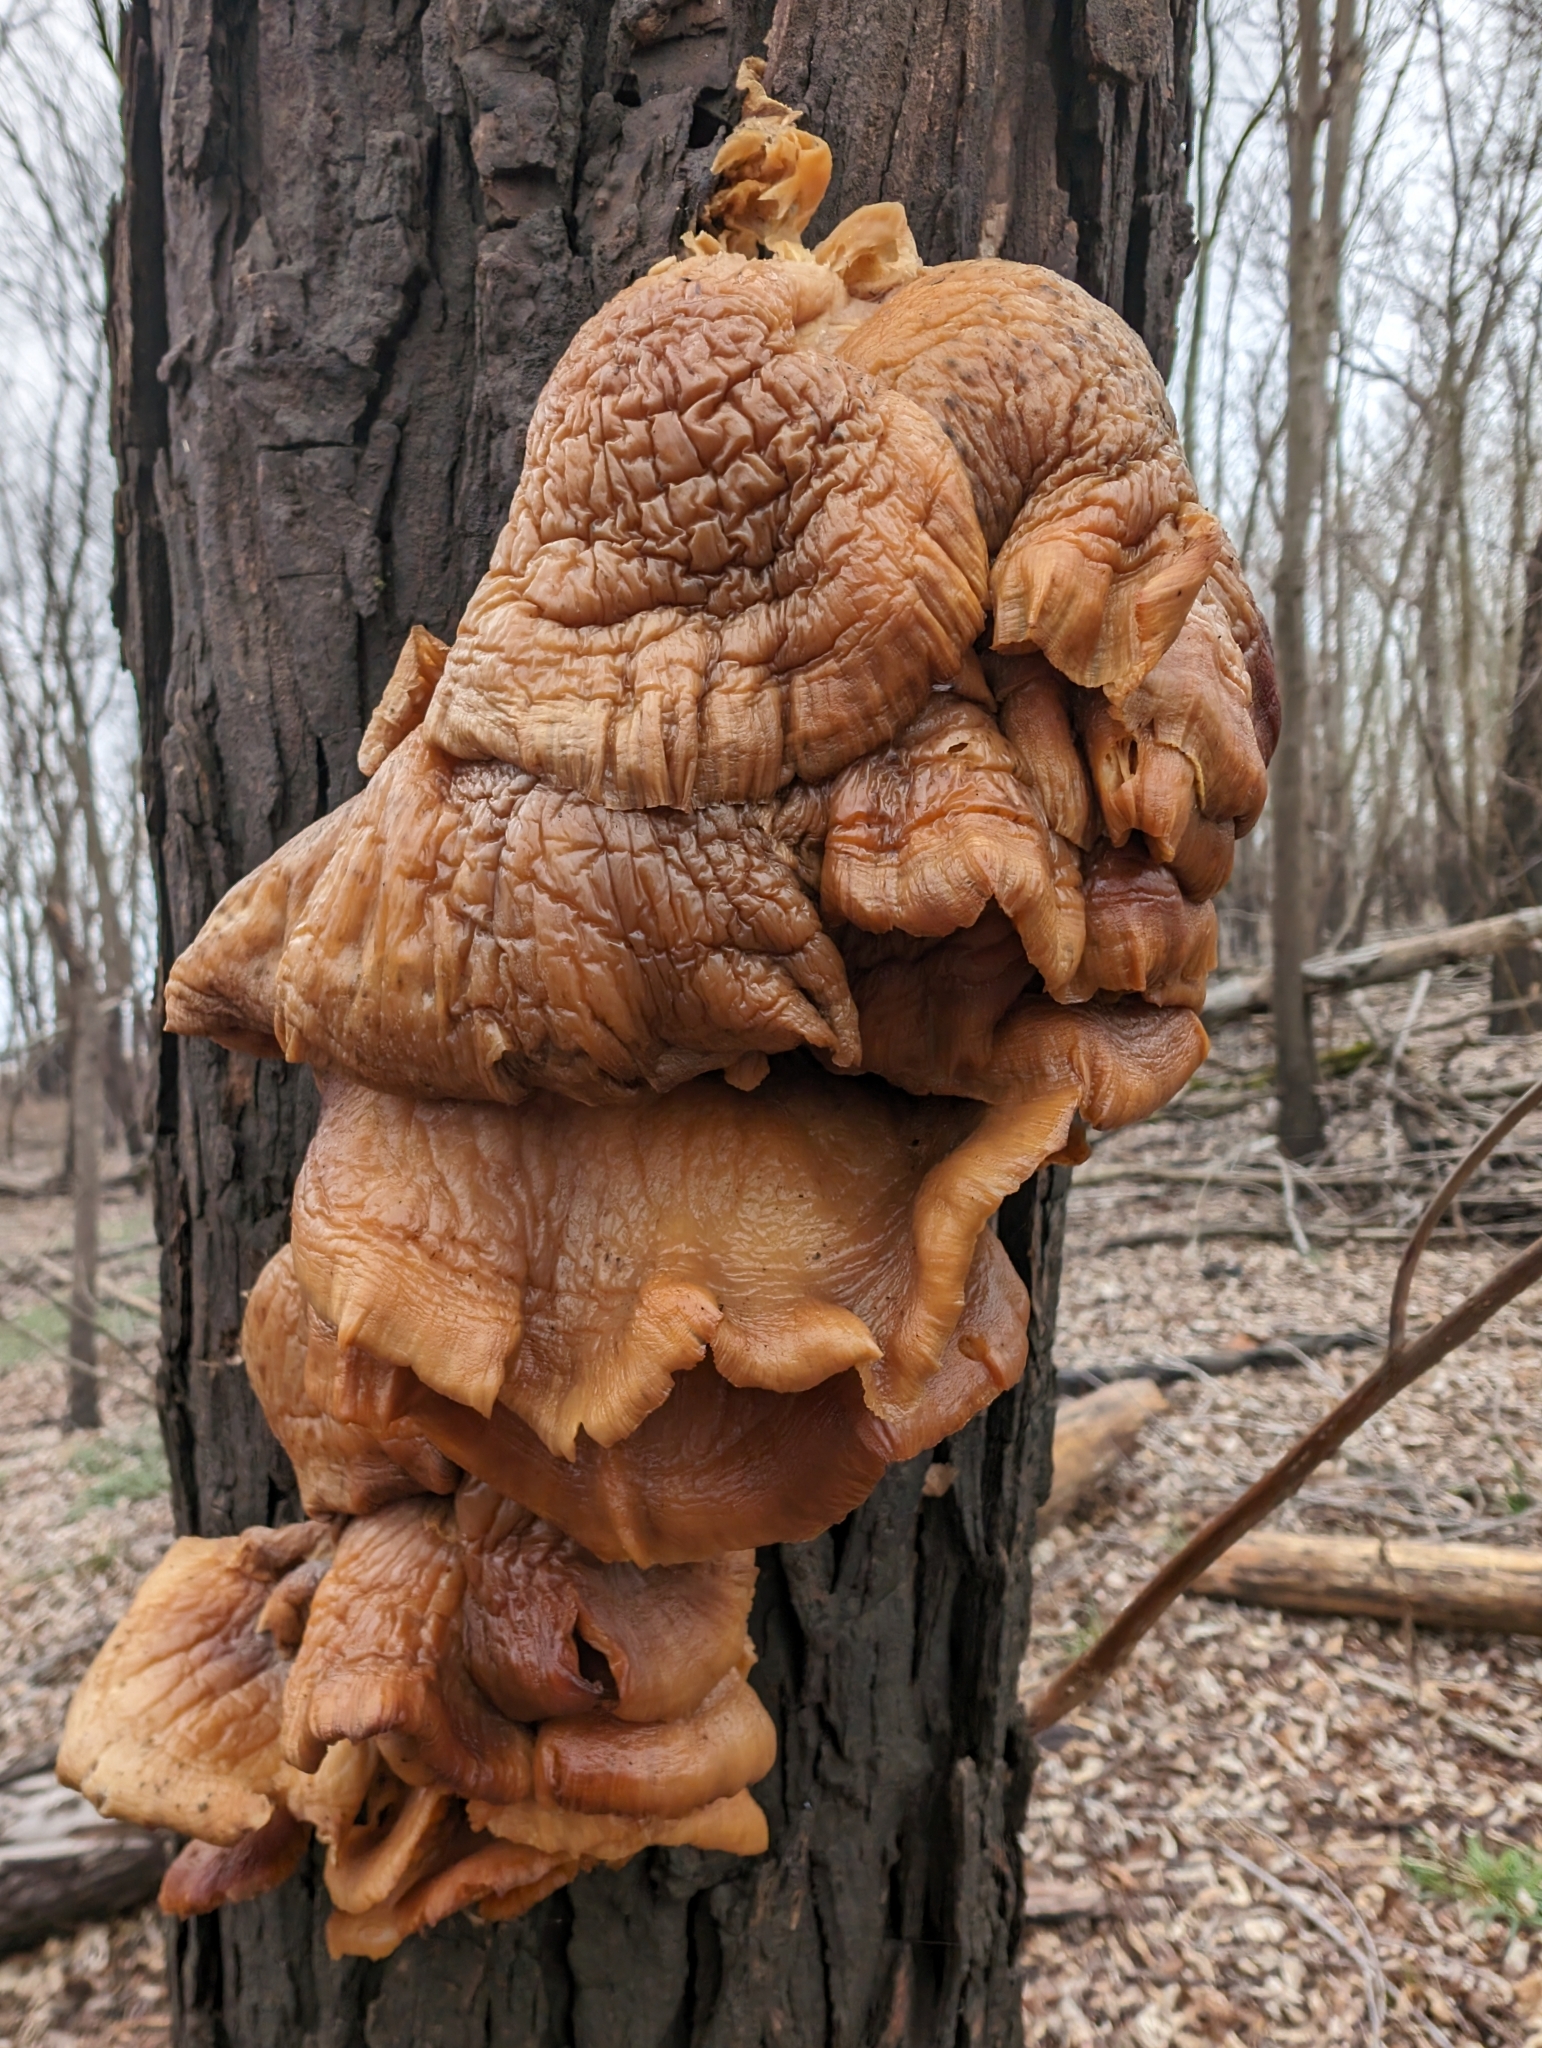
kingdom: Fungi
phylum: Basidiomycota
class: Agaricomycetes
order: Agaricales
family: Pleurotaceae
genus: Pleurotus
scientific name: Pleurotus ostreatus
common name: Oyster mushroom
